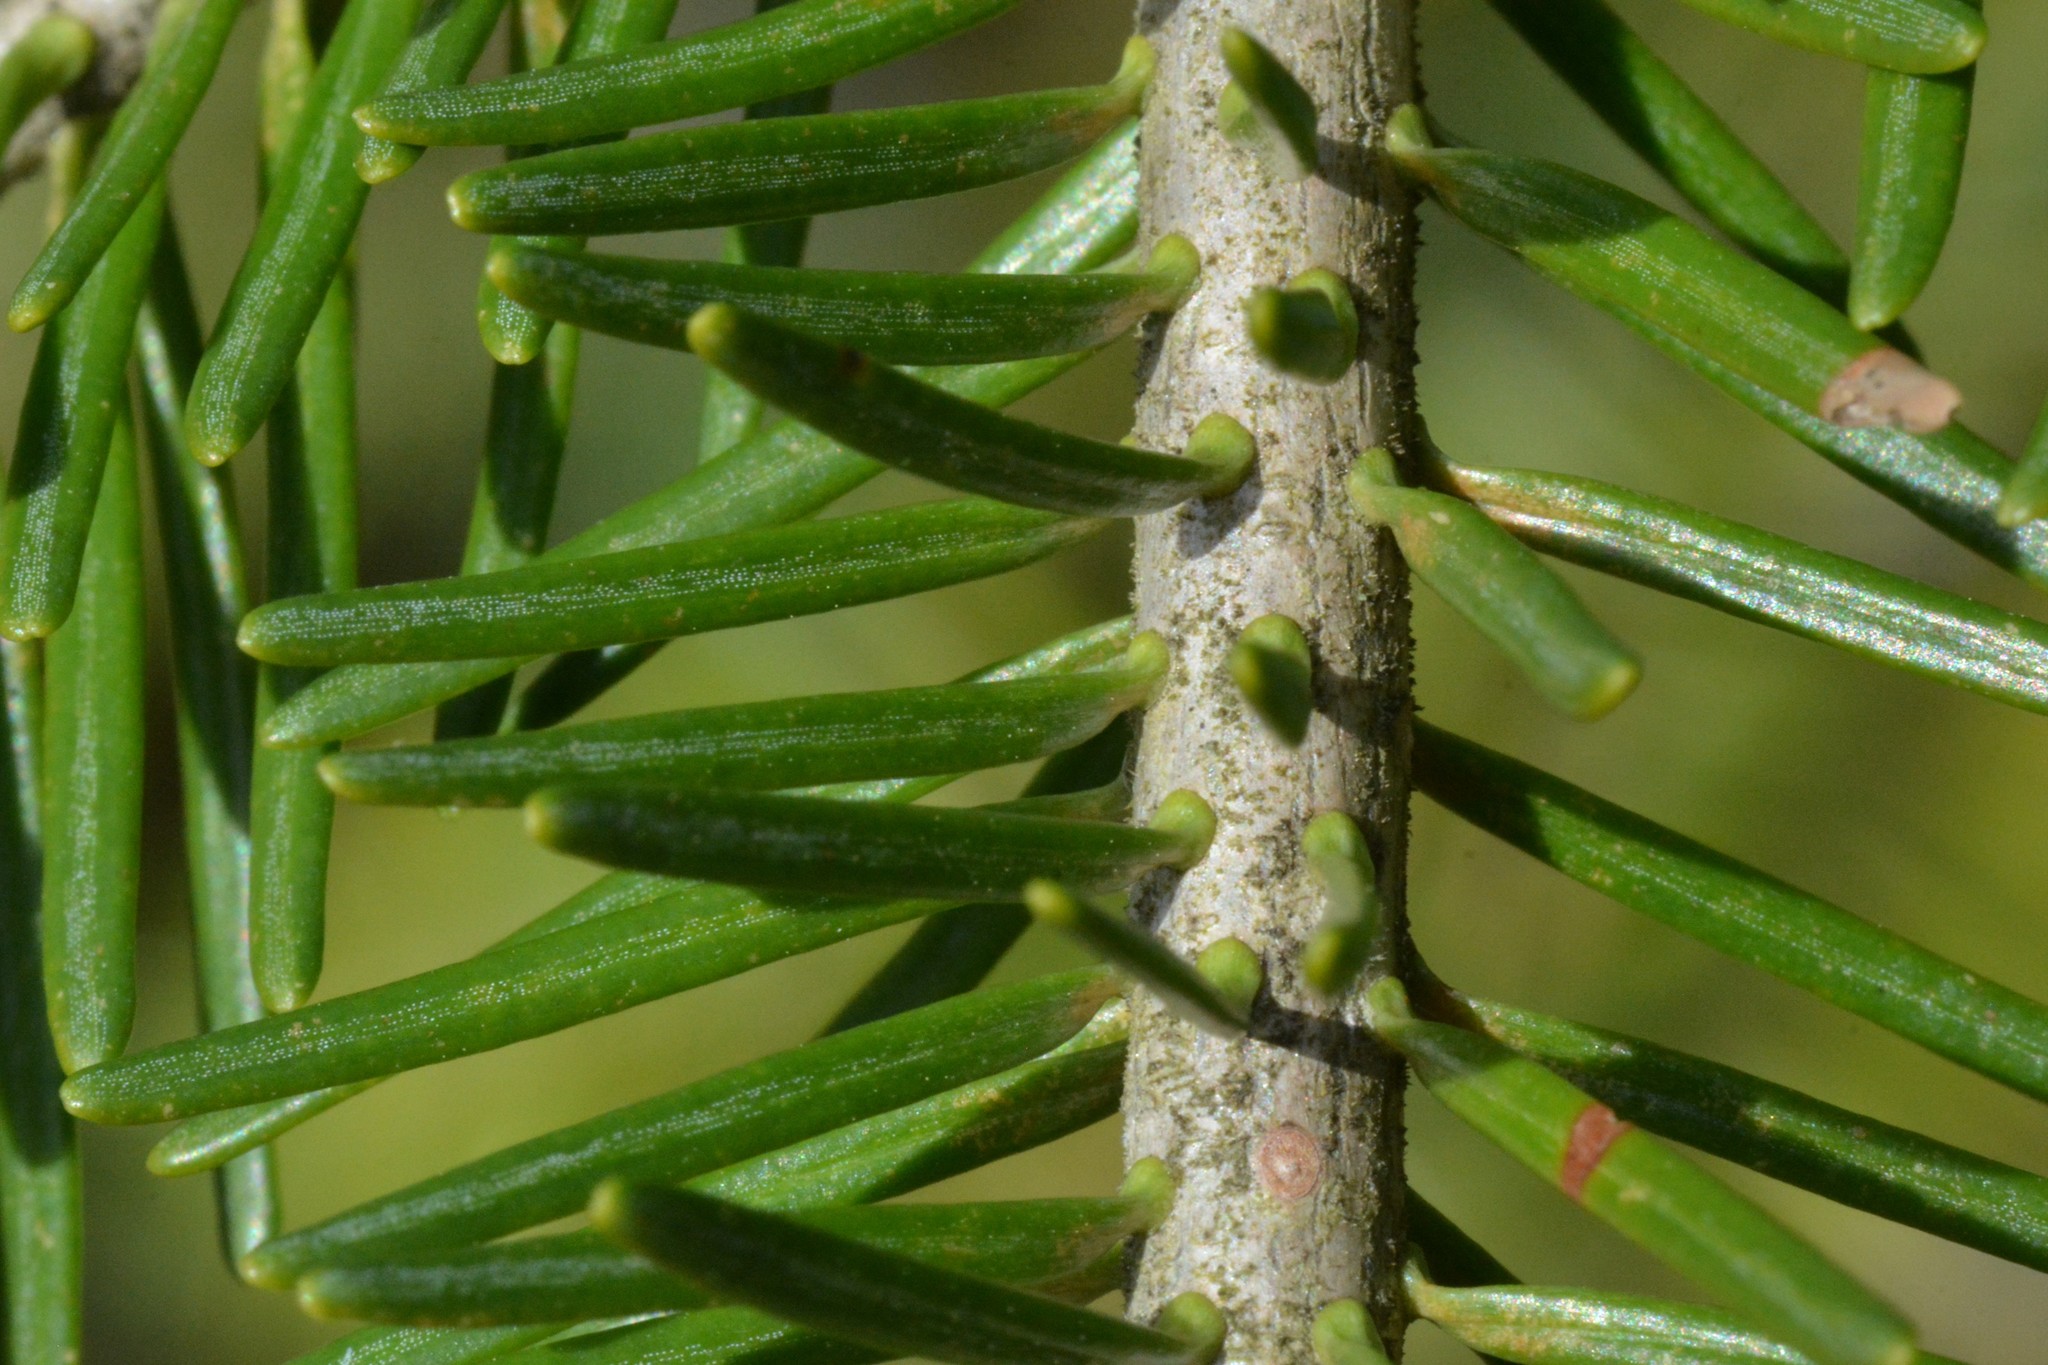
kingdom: Plantae
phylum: Tracheophyta
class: Pinopsida
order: Pinales
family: Pinaceae
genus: Abies
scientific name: Abies balsamea
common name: Balsam fir
